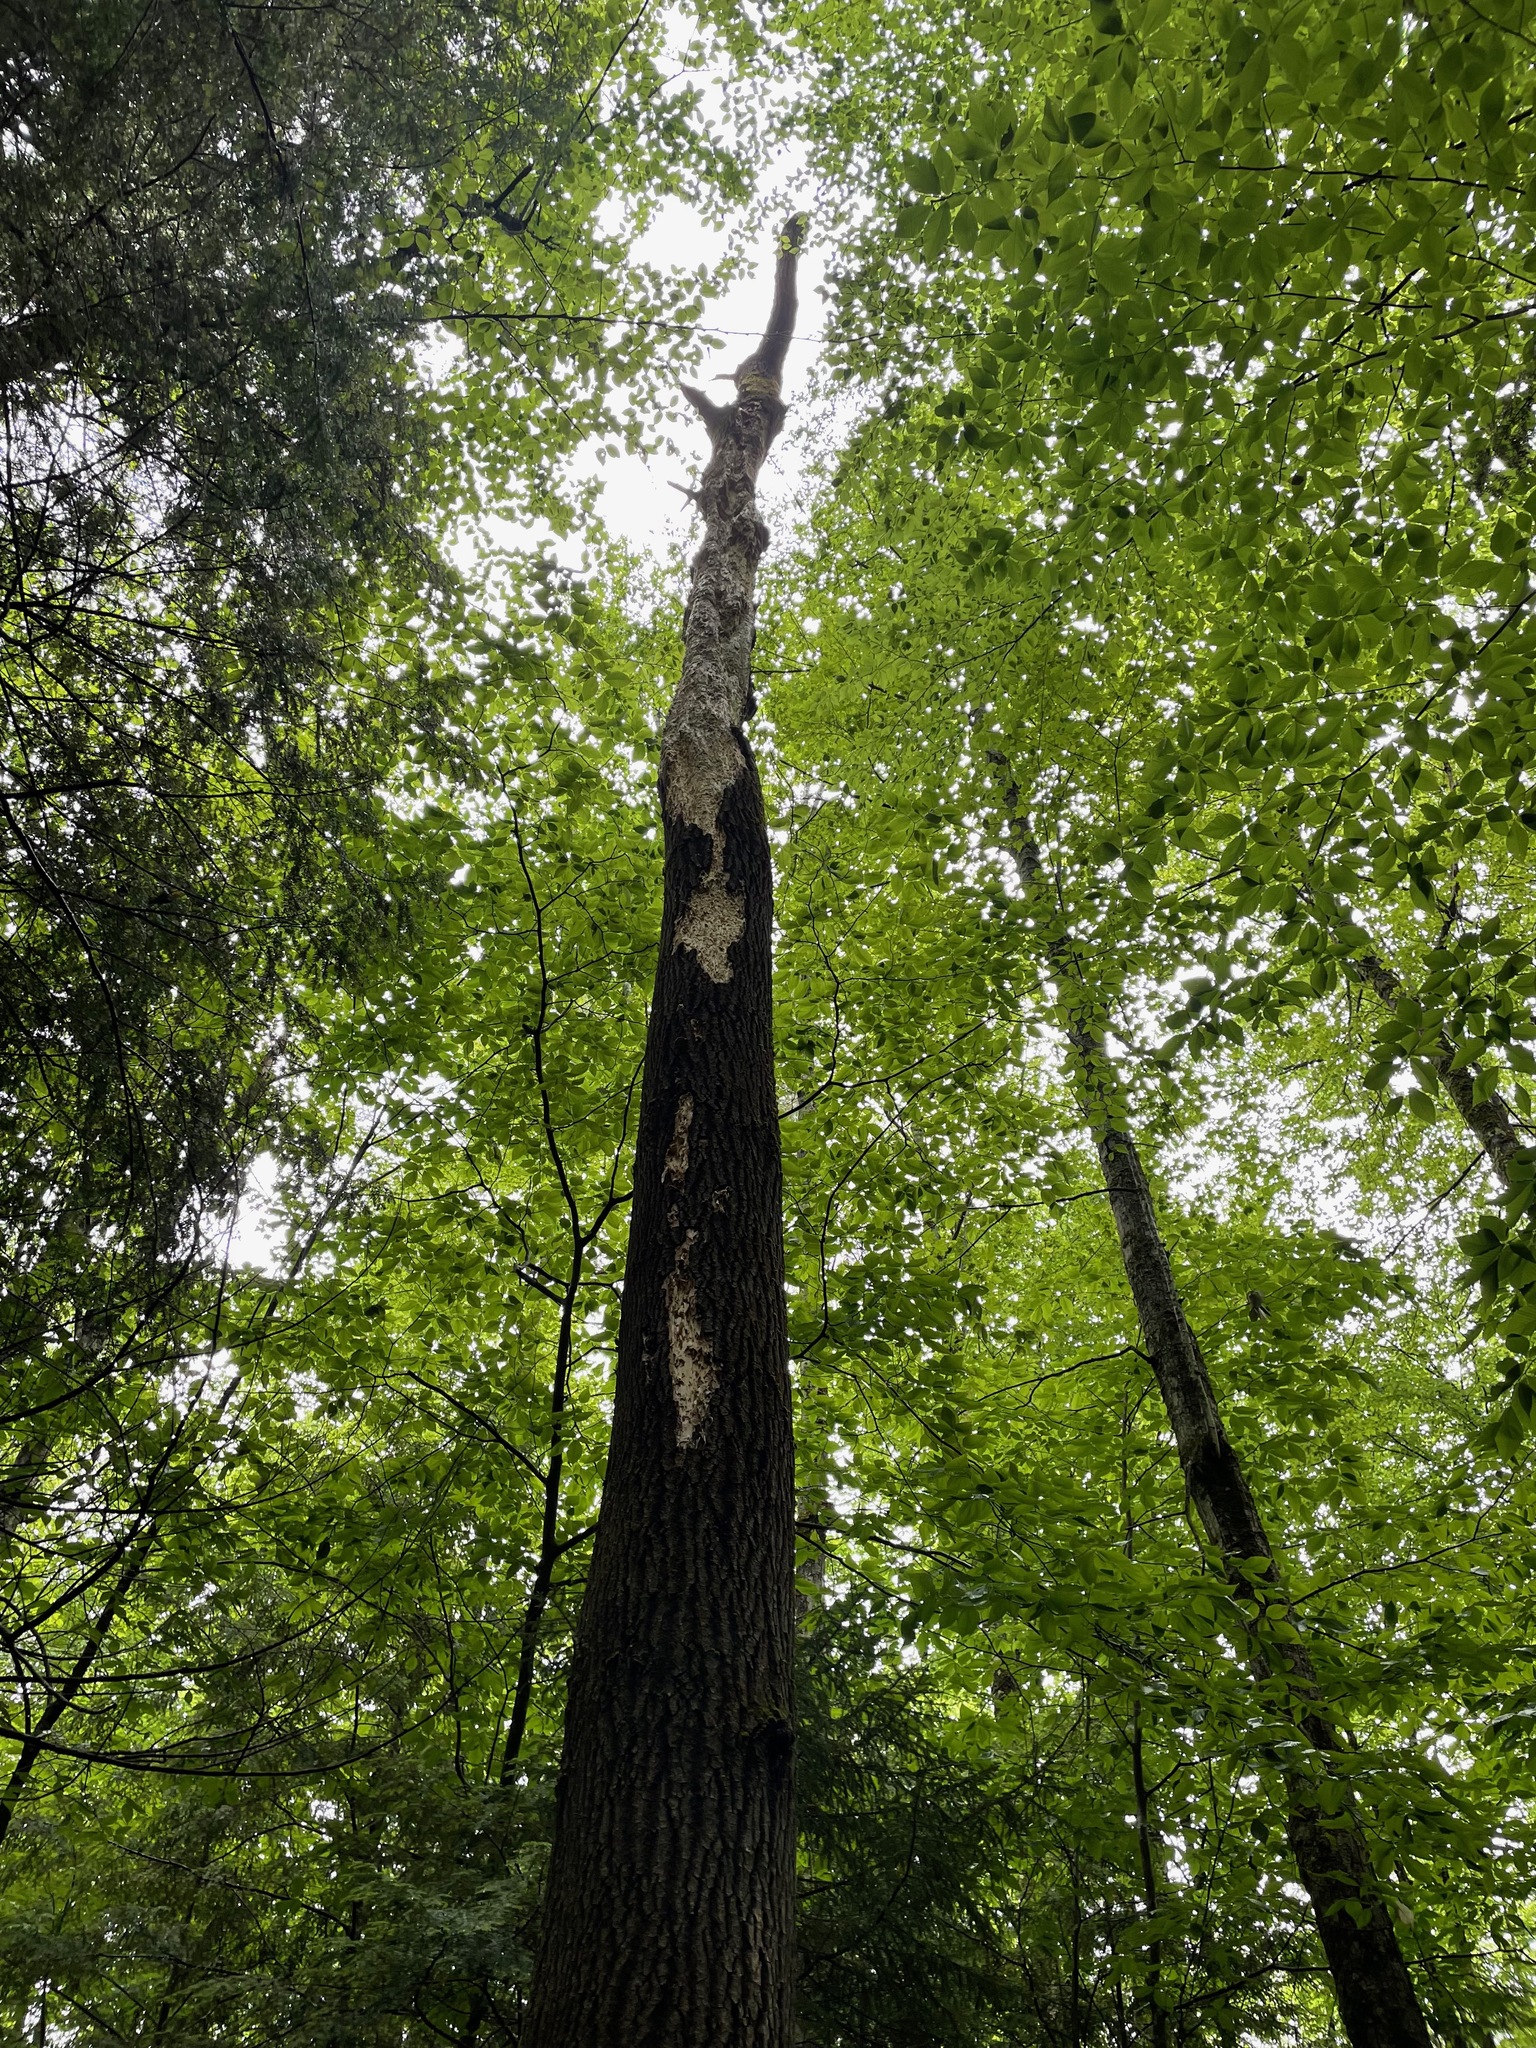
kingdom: Animalia
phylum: Chordata
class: Aves
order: Piciformes
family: Picidae
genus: Dryocopus
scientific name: Dryocopus pileatus
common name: Pileated woodpecker
